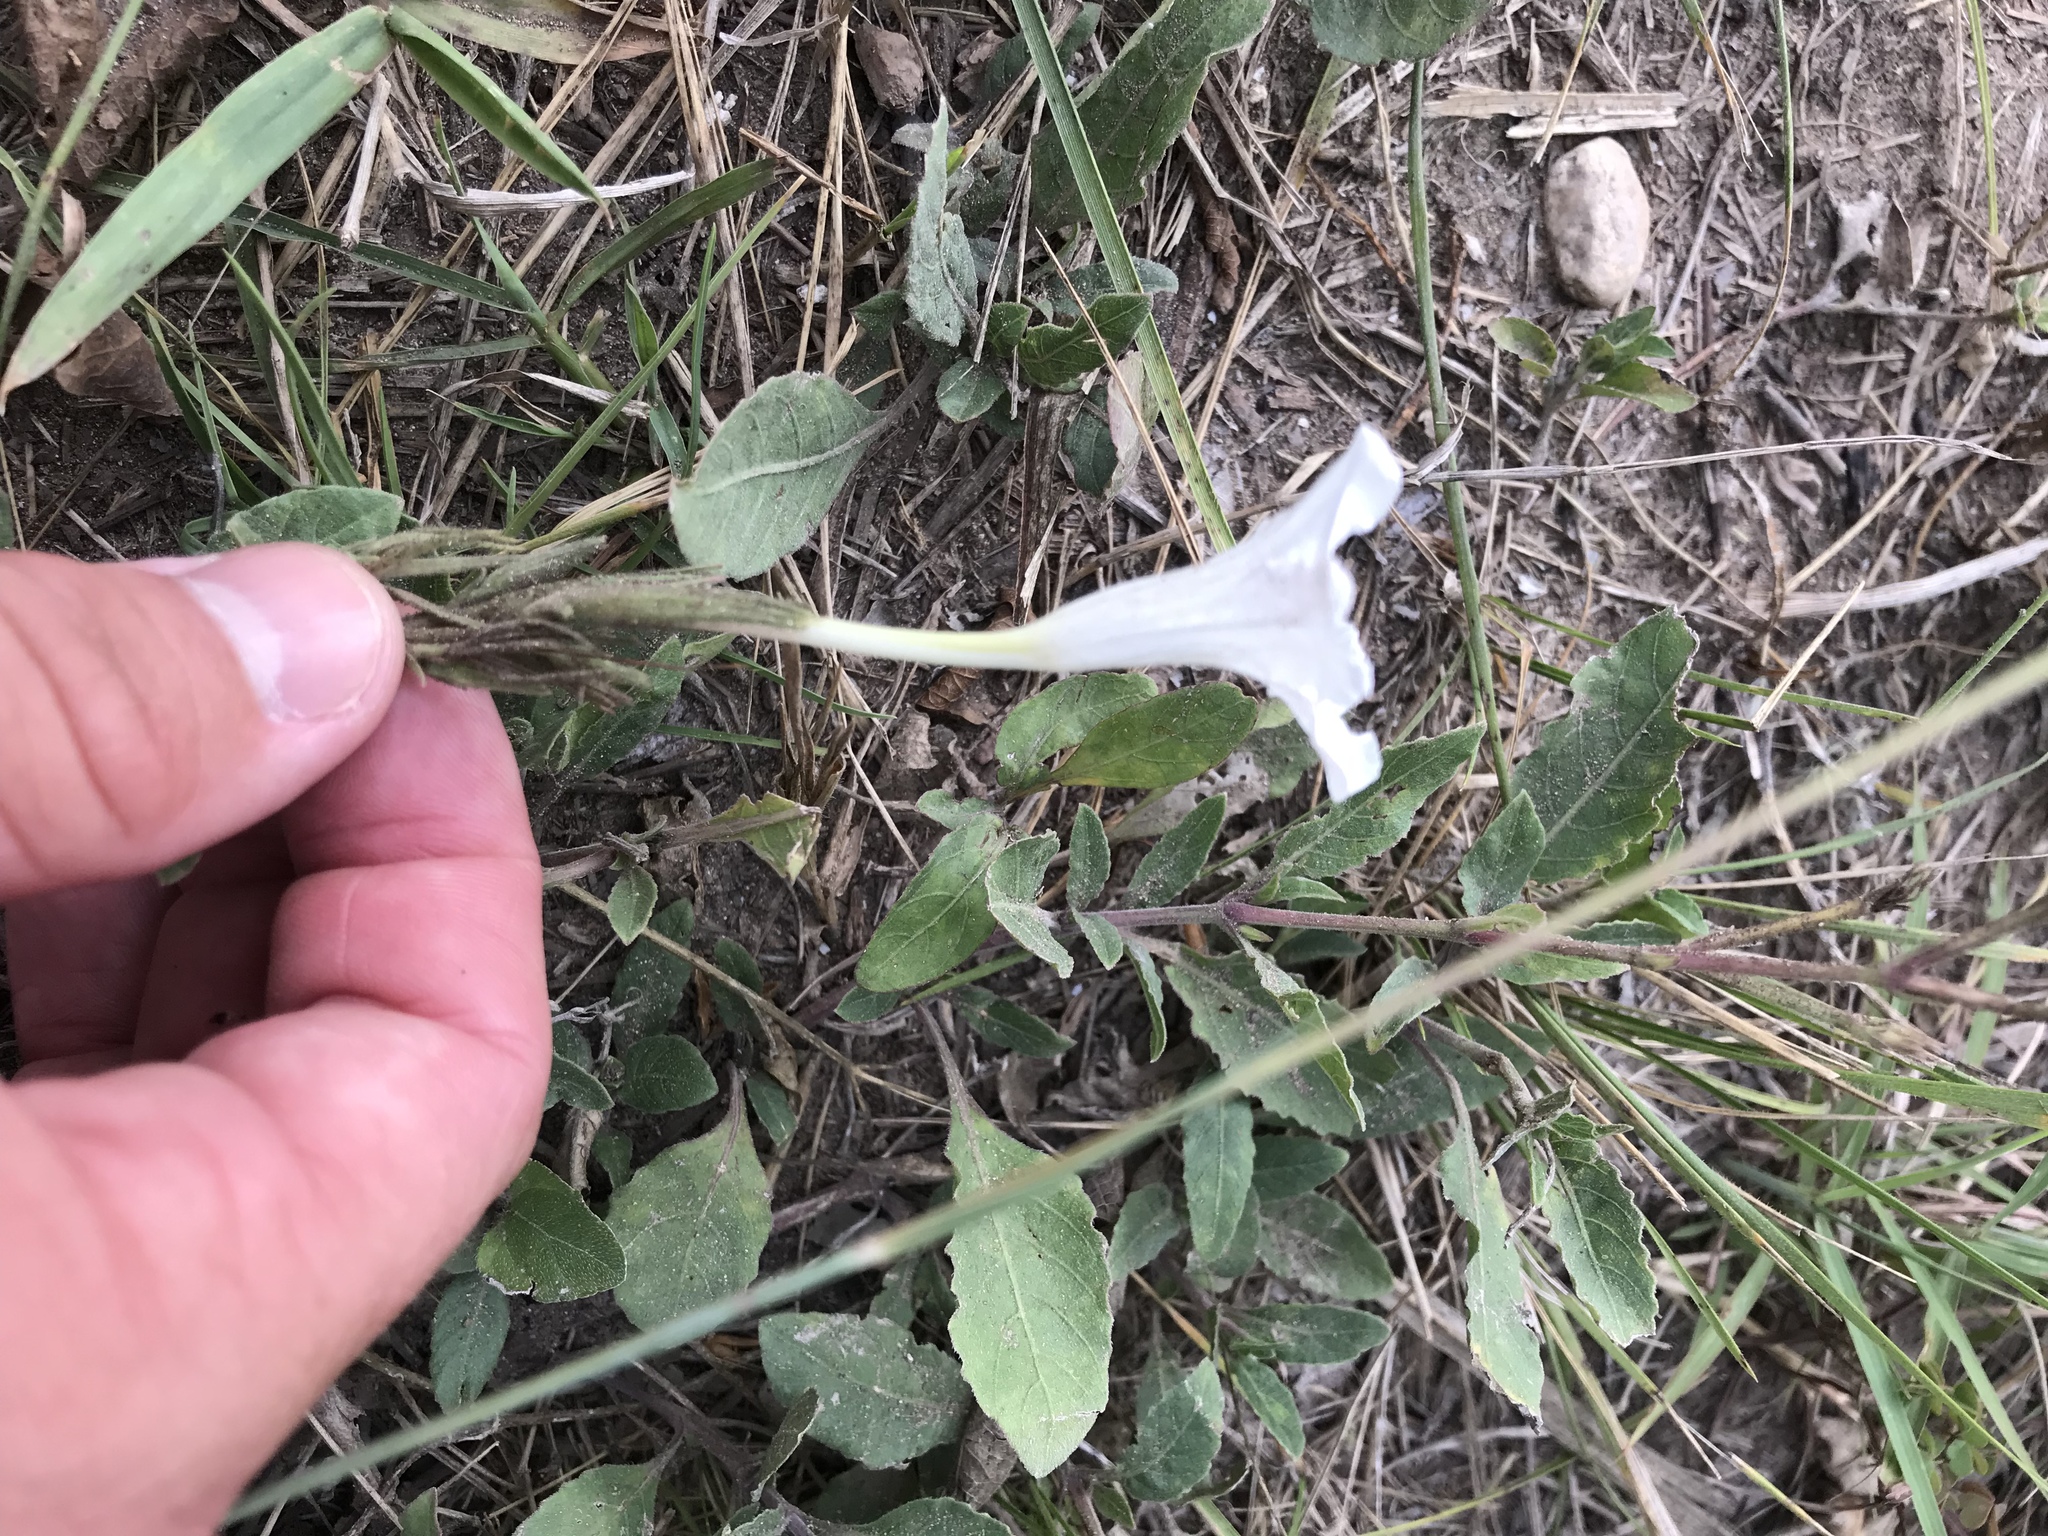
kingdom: Plantae
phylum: Tracheophyta
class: Magnoliopsida
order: Lamiales
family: Acanthaceae
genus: Ruellia
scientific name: Ruellia metziae
